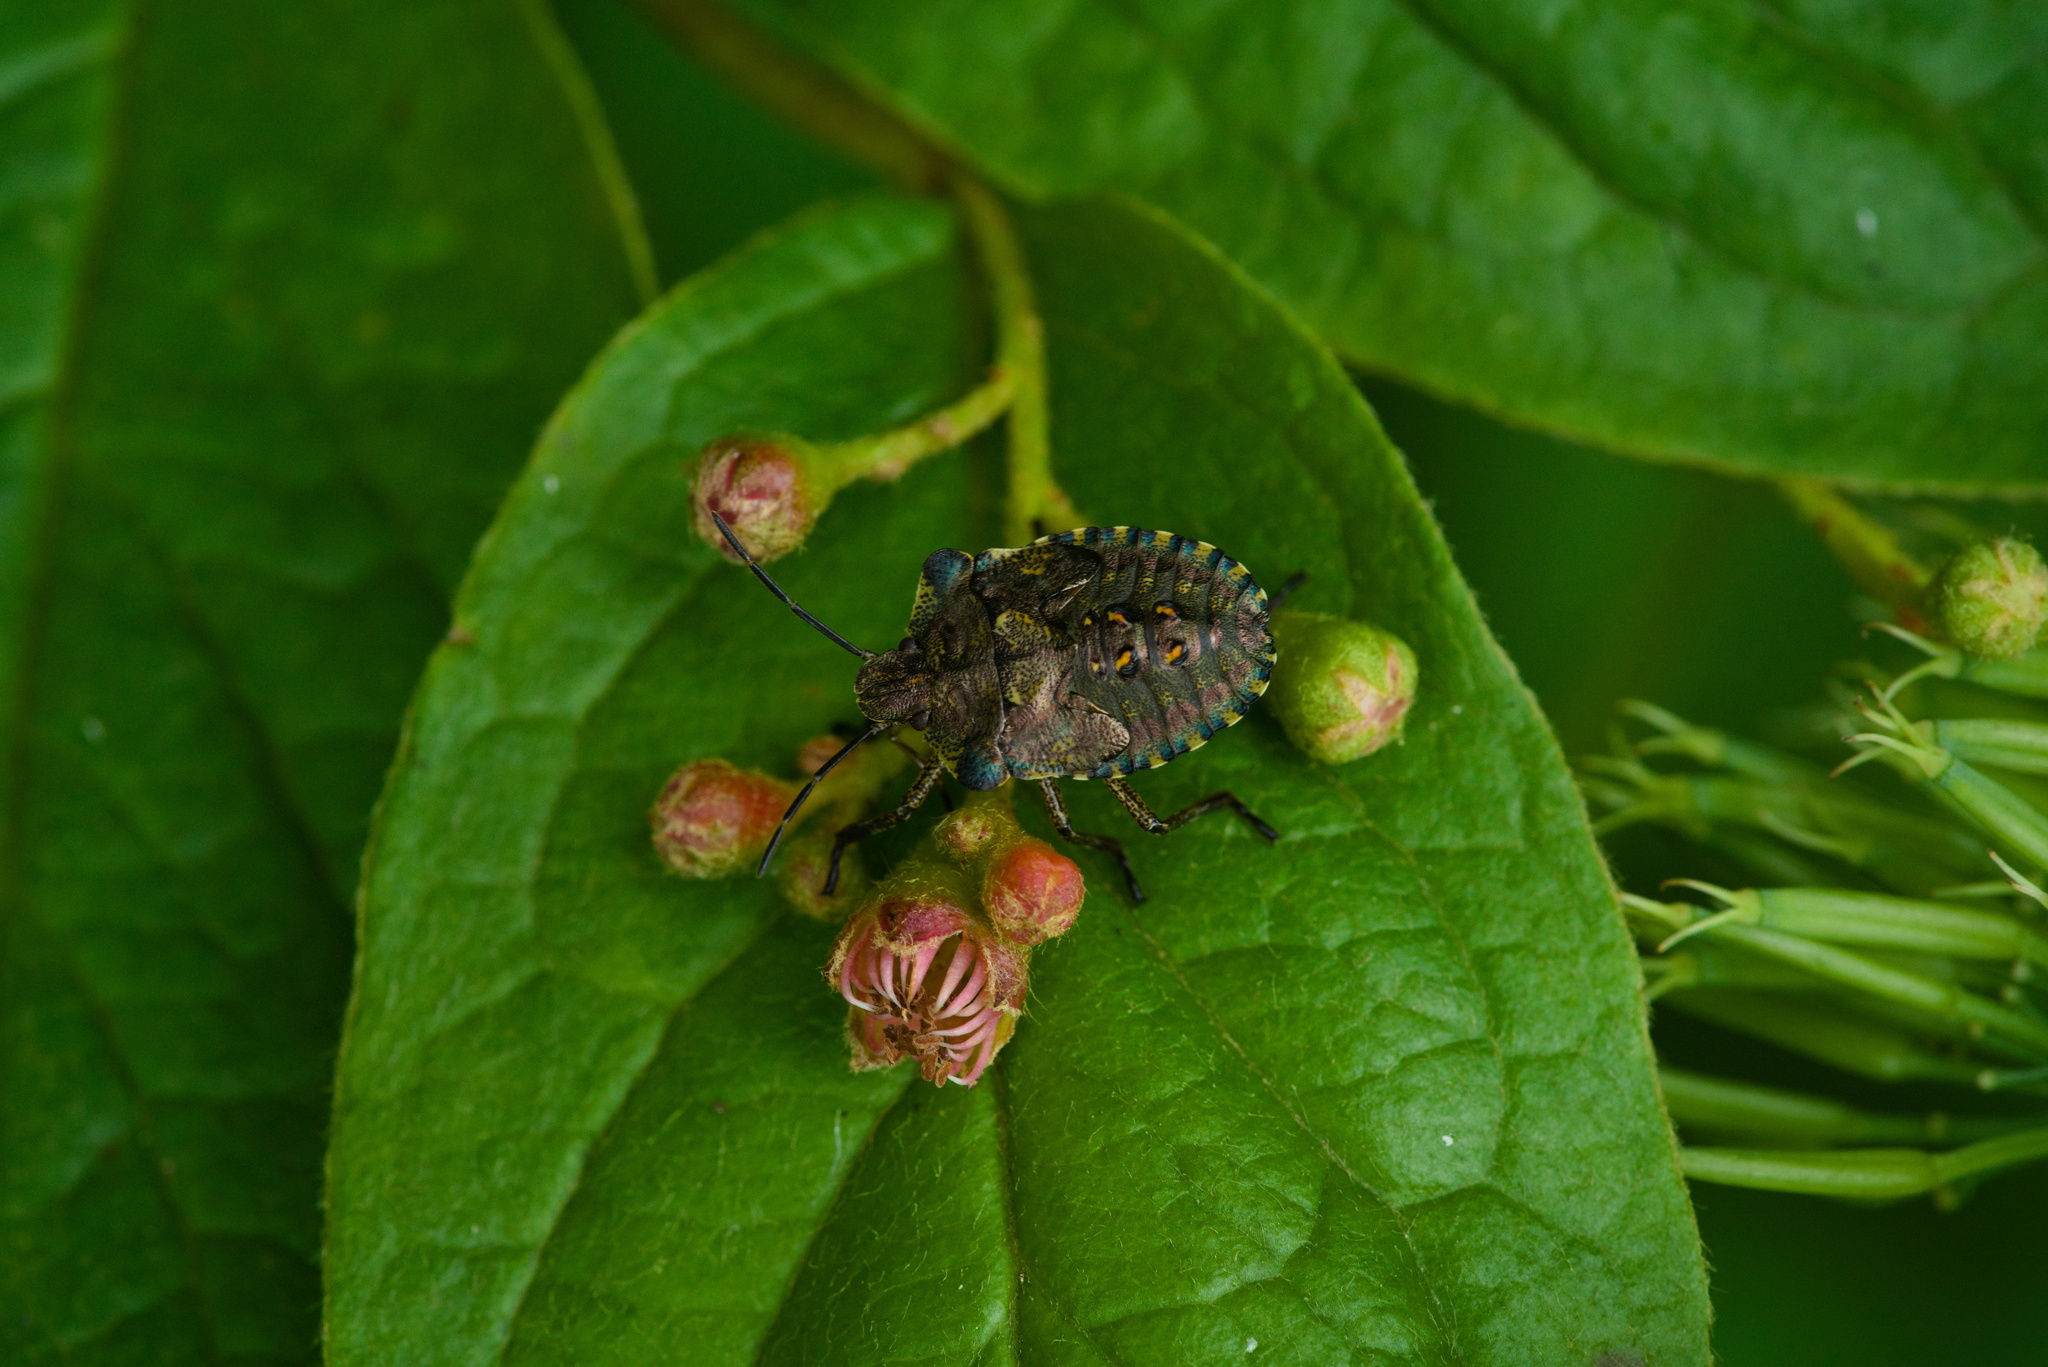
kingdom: Animalia
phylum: Arthropoda
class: Insecta
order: Hemiptera
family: Pentatomidae
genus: Pentatoma
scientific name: Pentatoma rufipes
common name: Forest bug
